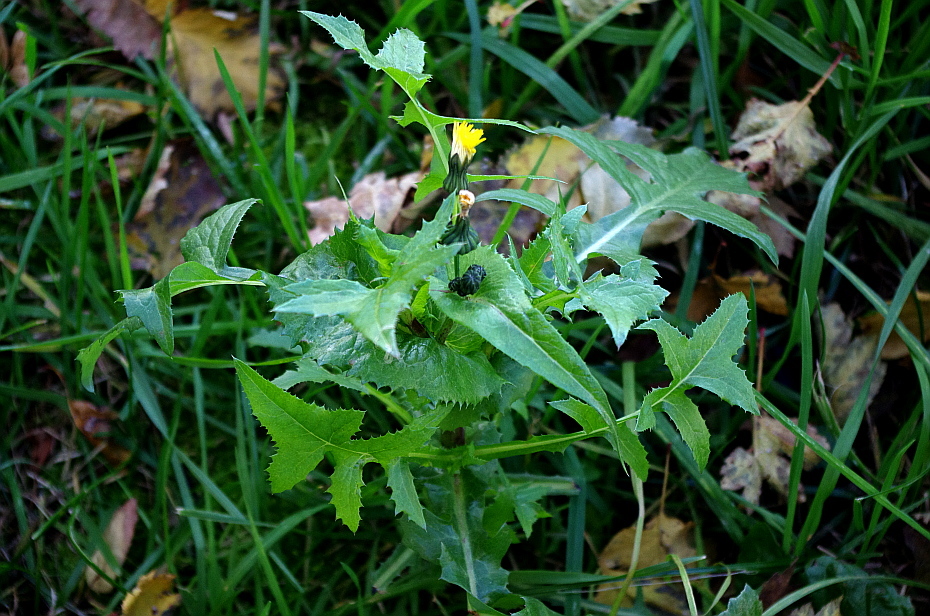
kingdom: Plantae
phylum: Tracheophyta
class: Magnoliopsida
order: Asterales
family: Asteraceae
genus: Sonchus
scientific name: Sonchus oleraceus
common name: Common sowthistle
